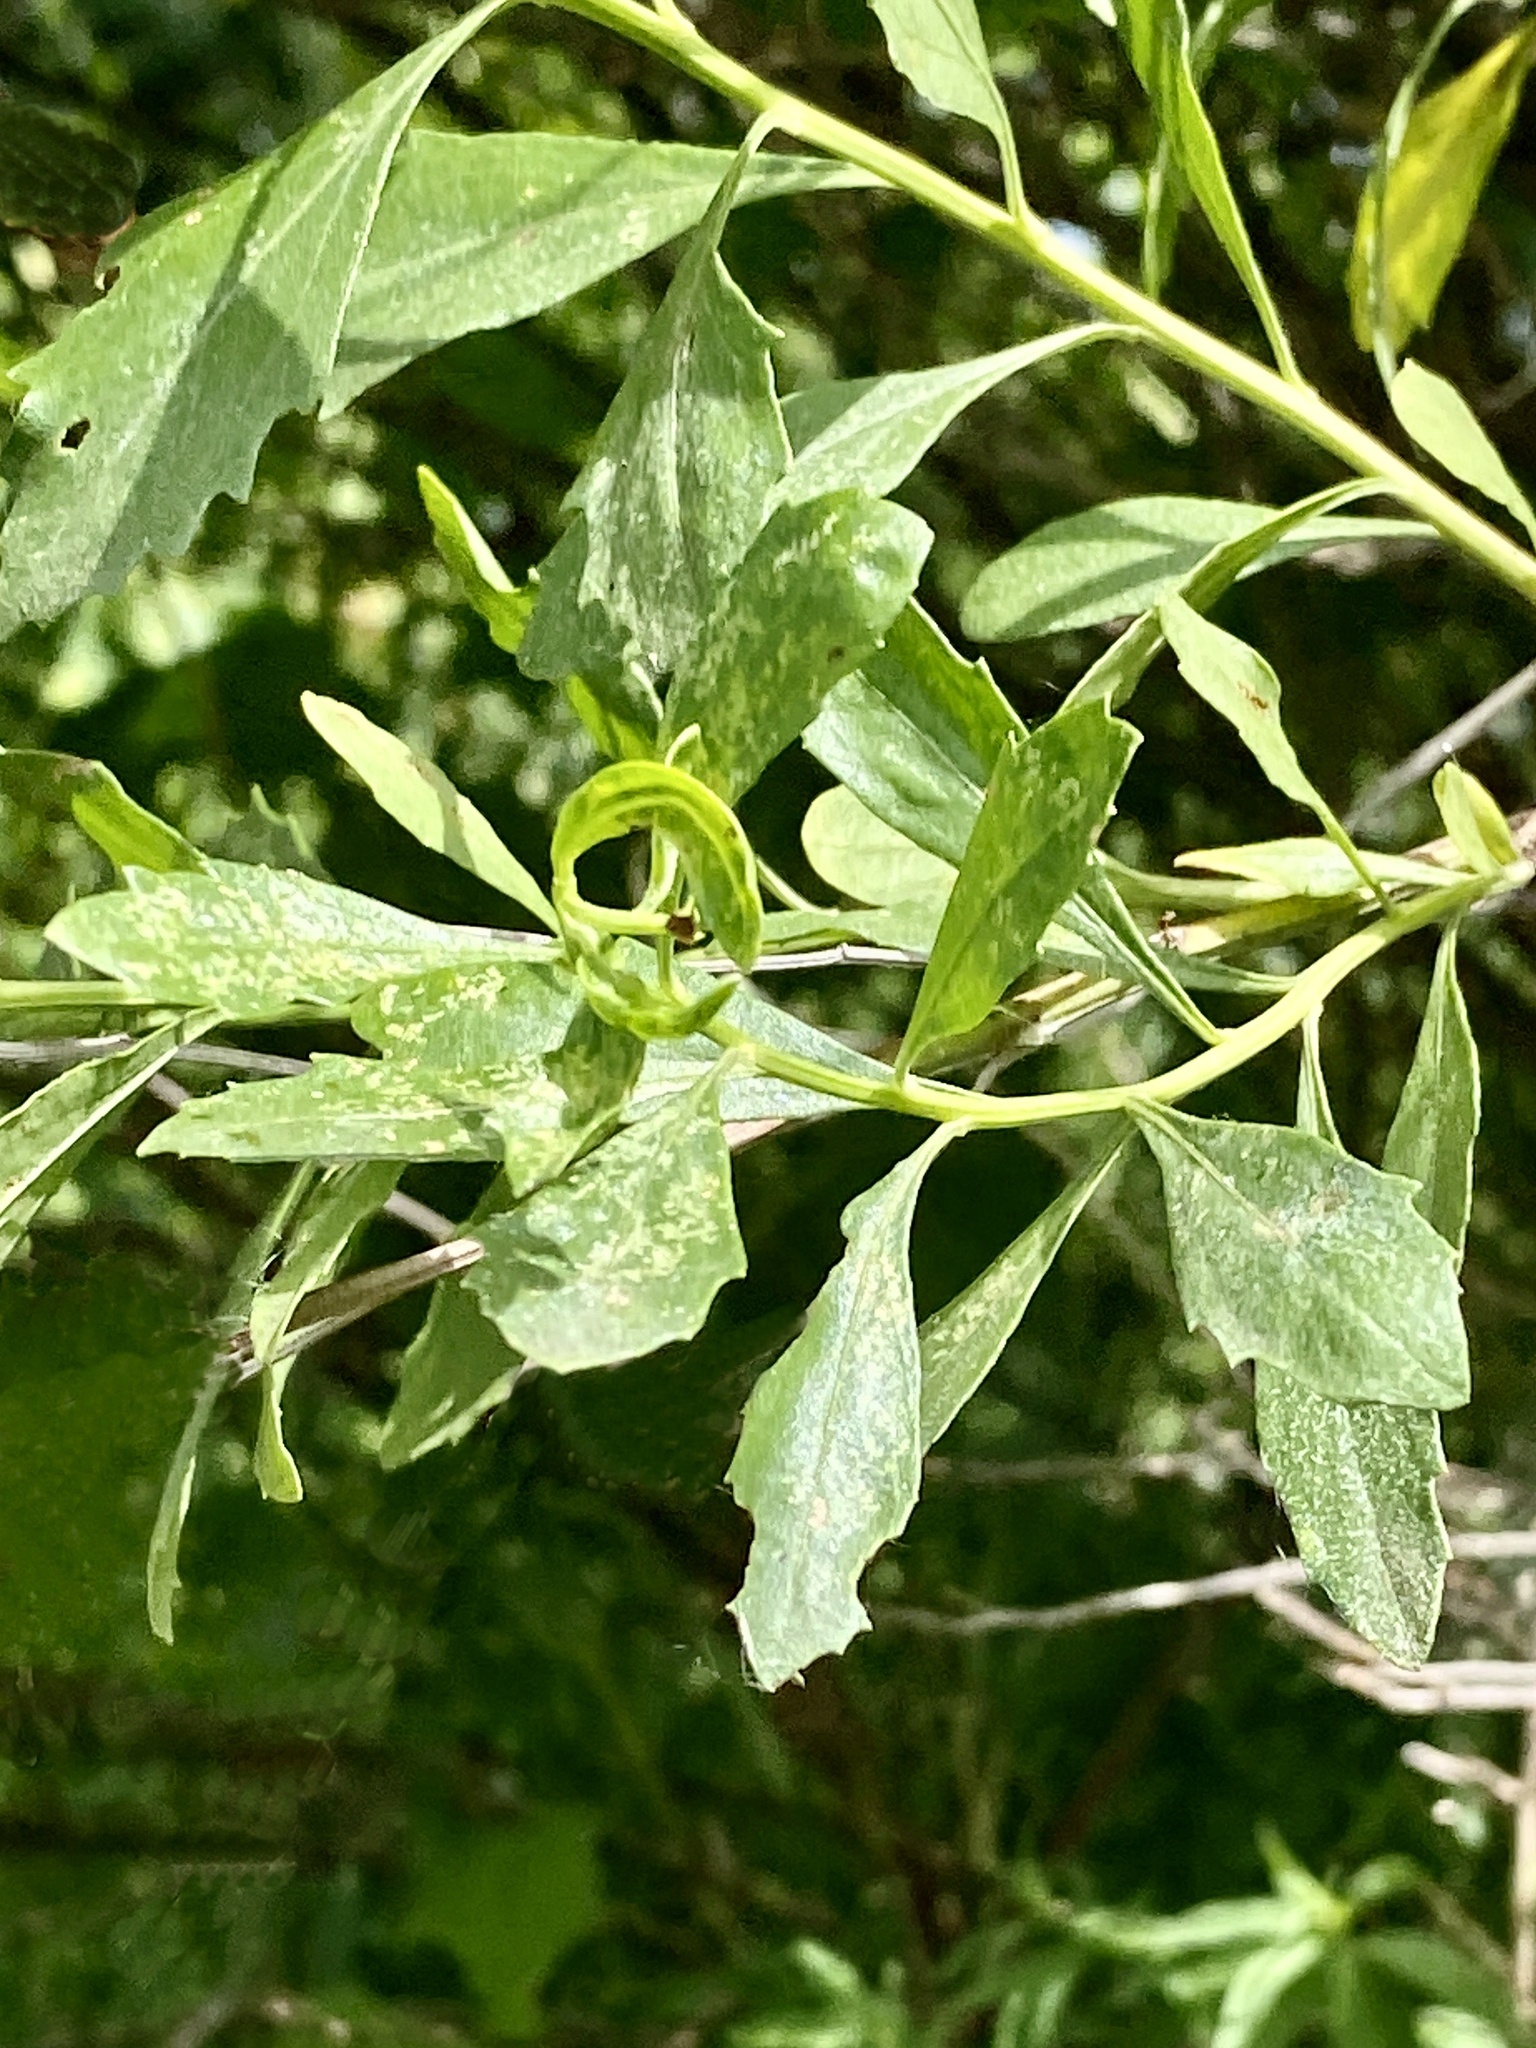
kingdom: Plantae
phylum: Tracheophyta
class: Magnoliopsida
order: Asterales
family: Asteraceae
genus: Baccharis
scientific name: Baccharis halimifolia
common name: Eastern baccharis
